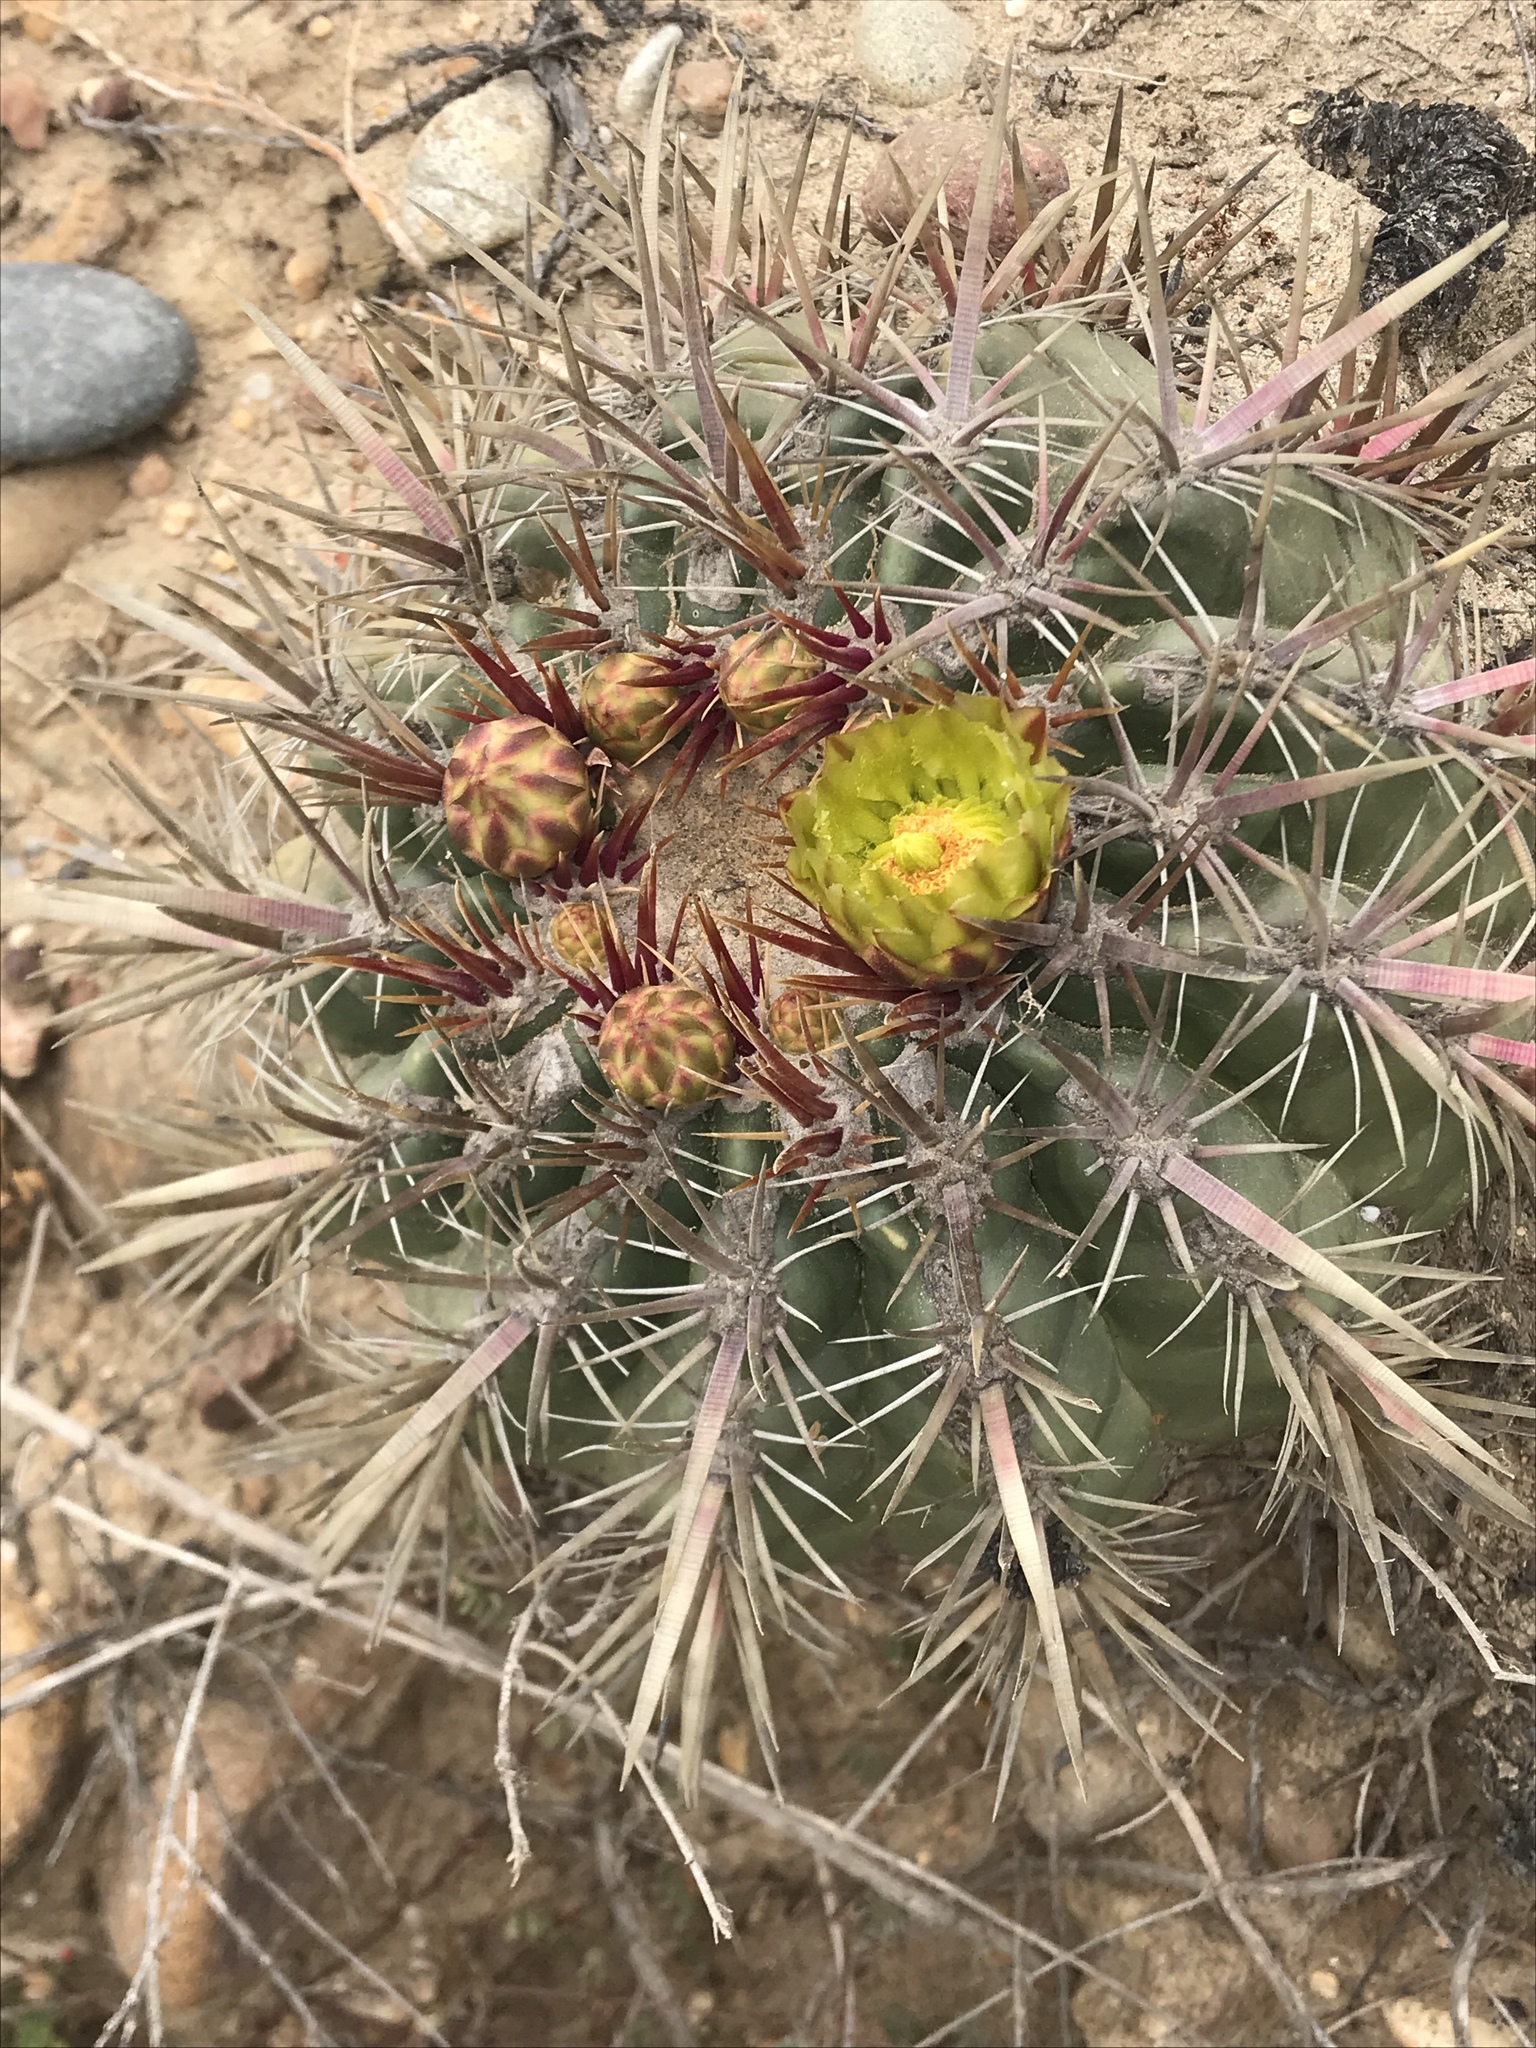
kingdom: Plantae
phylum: Tracheophyta
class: Magnoliopsida
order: Caryophyllales
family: Cactaceae
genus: Ferocactus
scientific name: Ferocactus viridescens
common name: San diego barrel cactus
